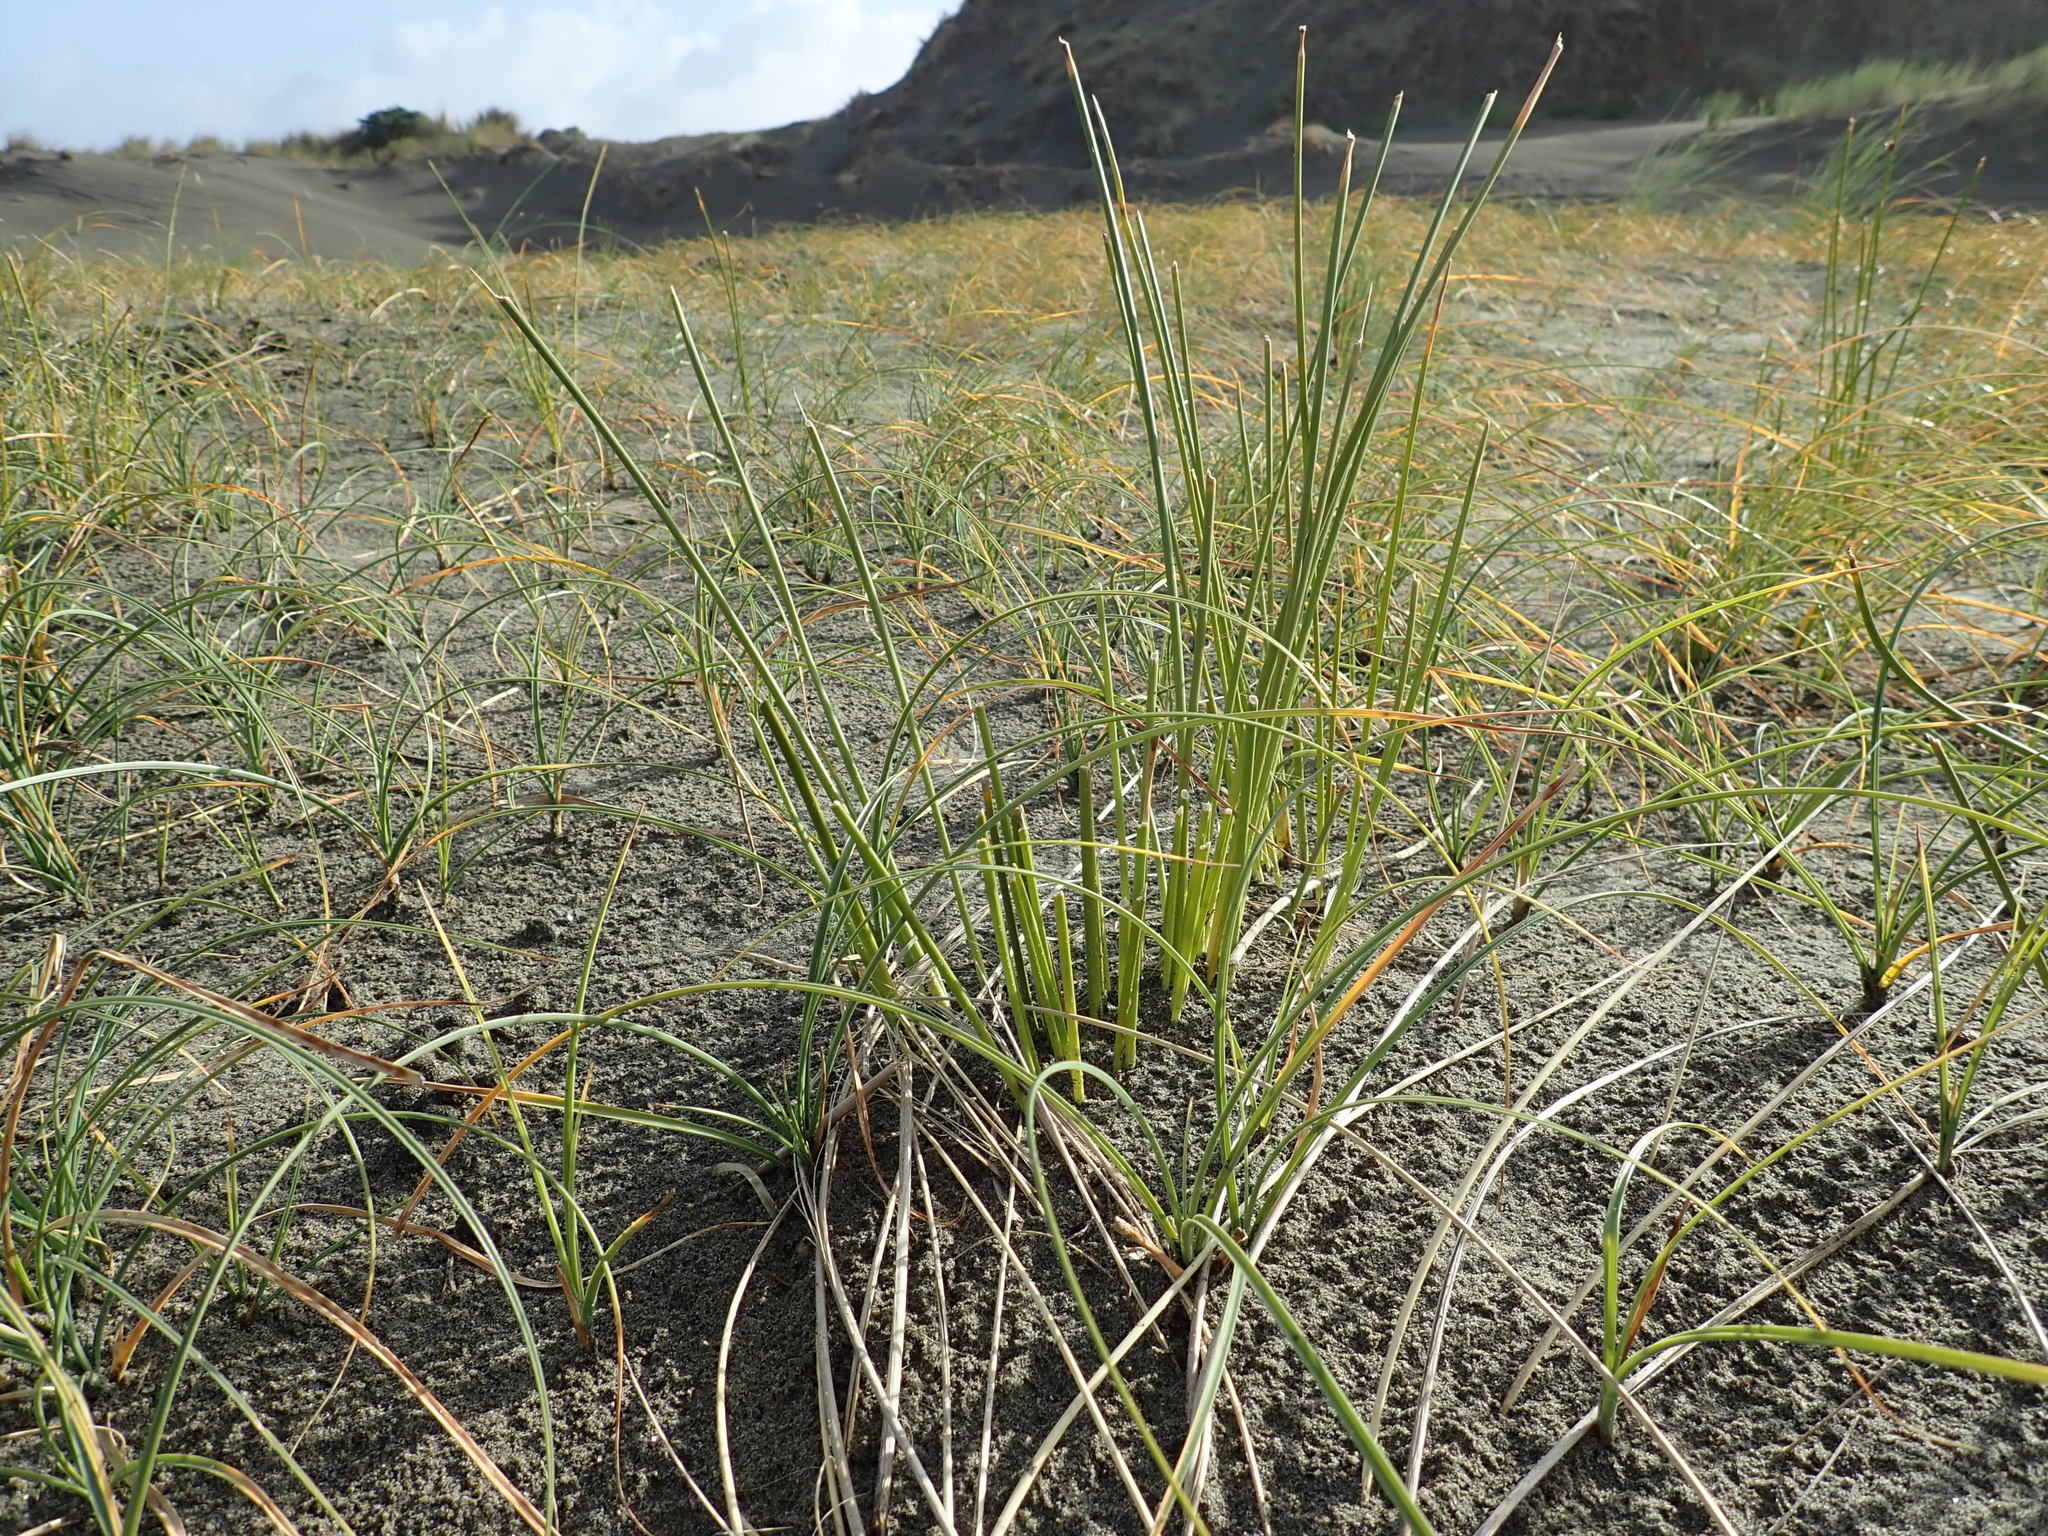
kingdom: Plantae
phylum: Tracheophyta
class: Liliopsida
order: Poales
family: Cyperaceae
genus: Ficinia
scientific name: Ficinia nodosa
